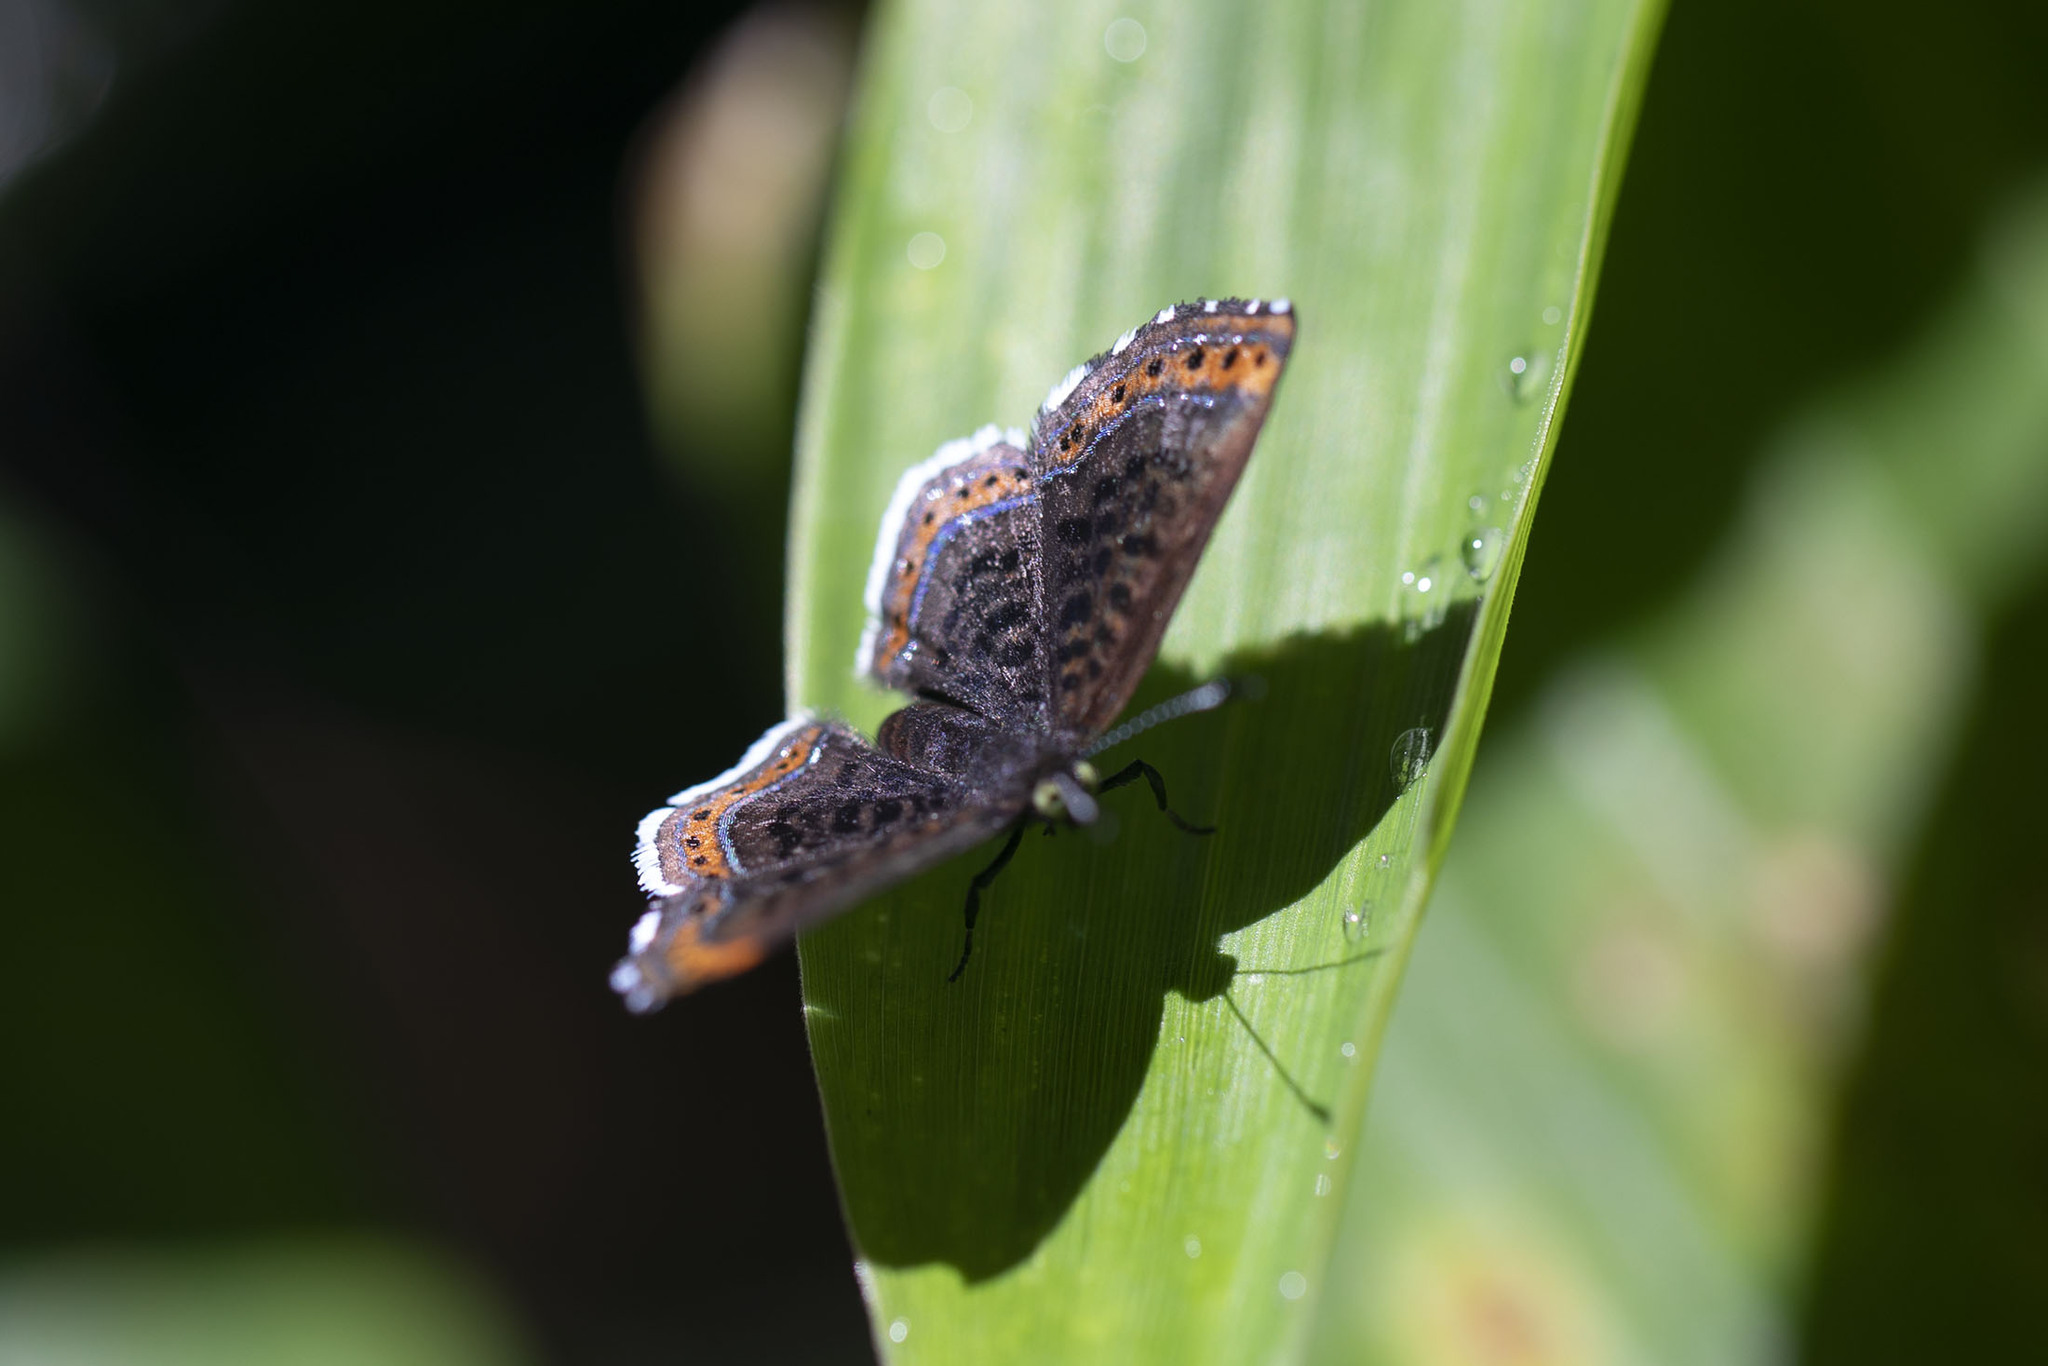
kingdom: Animalia
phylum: Arthropoda
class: Insecta
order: Lepidoptera
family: Riodinidae
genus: Detritivora
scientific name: Detritivora cleonus
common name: Cleonus metalmark
